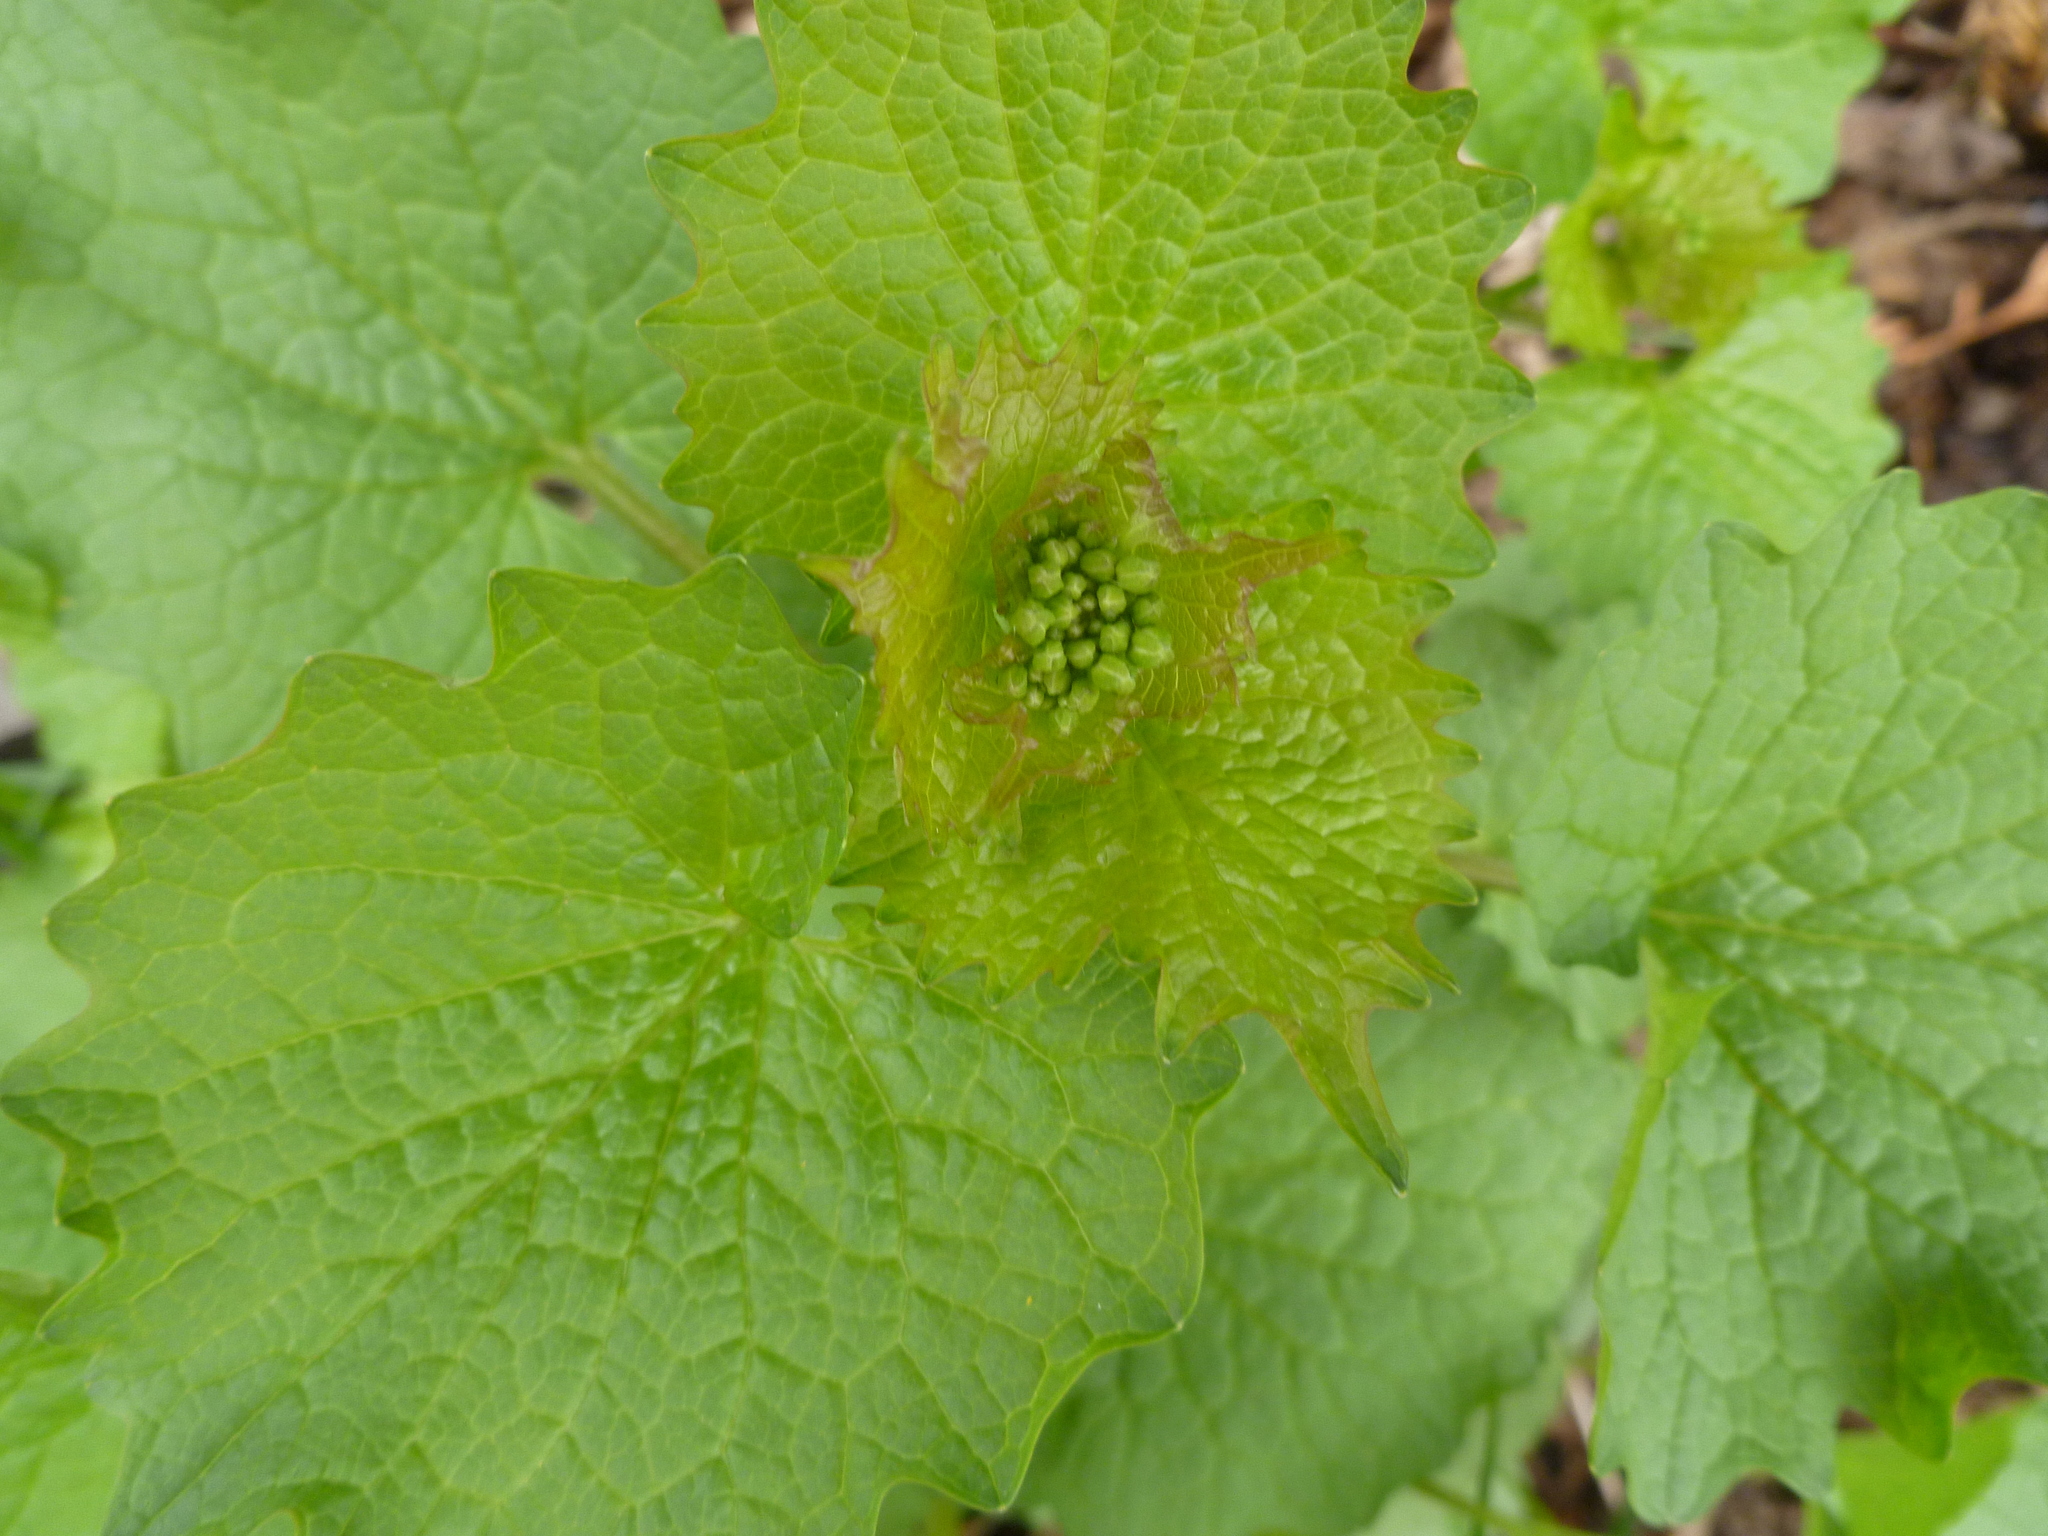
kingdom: Plantae
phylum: Tracheophyta
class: Magnoliopsida
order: Brassicales
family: Brassicaceae
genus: Alliaria
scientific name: Alliaria petiolata
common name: Garlic mustard
